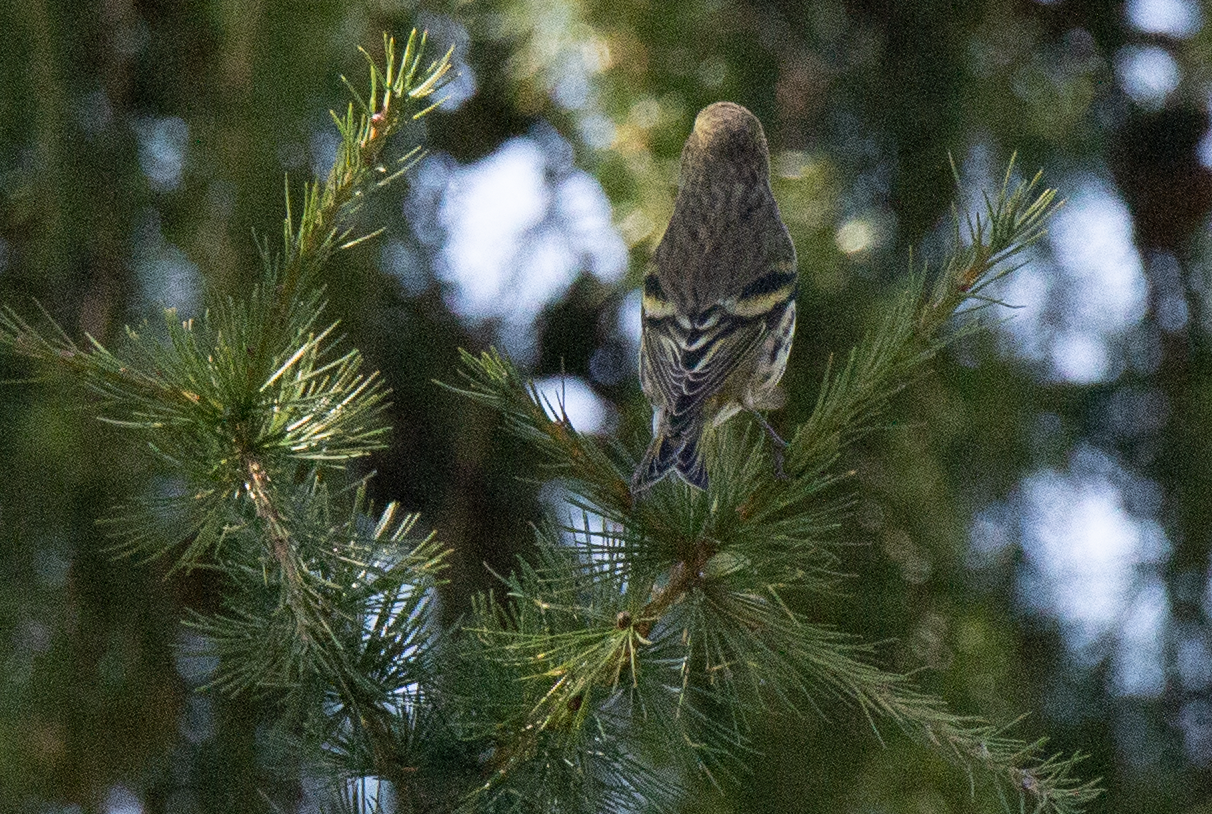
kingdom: Animalia
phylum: Chordata
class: Aves
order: Passeriformes
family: Fringillidae
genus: Spinus
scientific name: Spinus spinus
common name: Eurasian siskin
